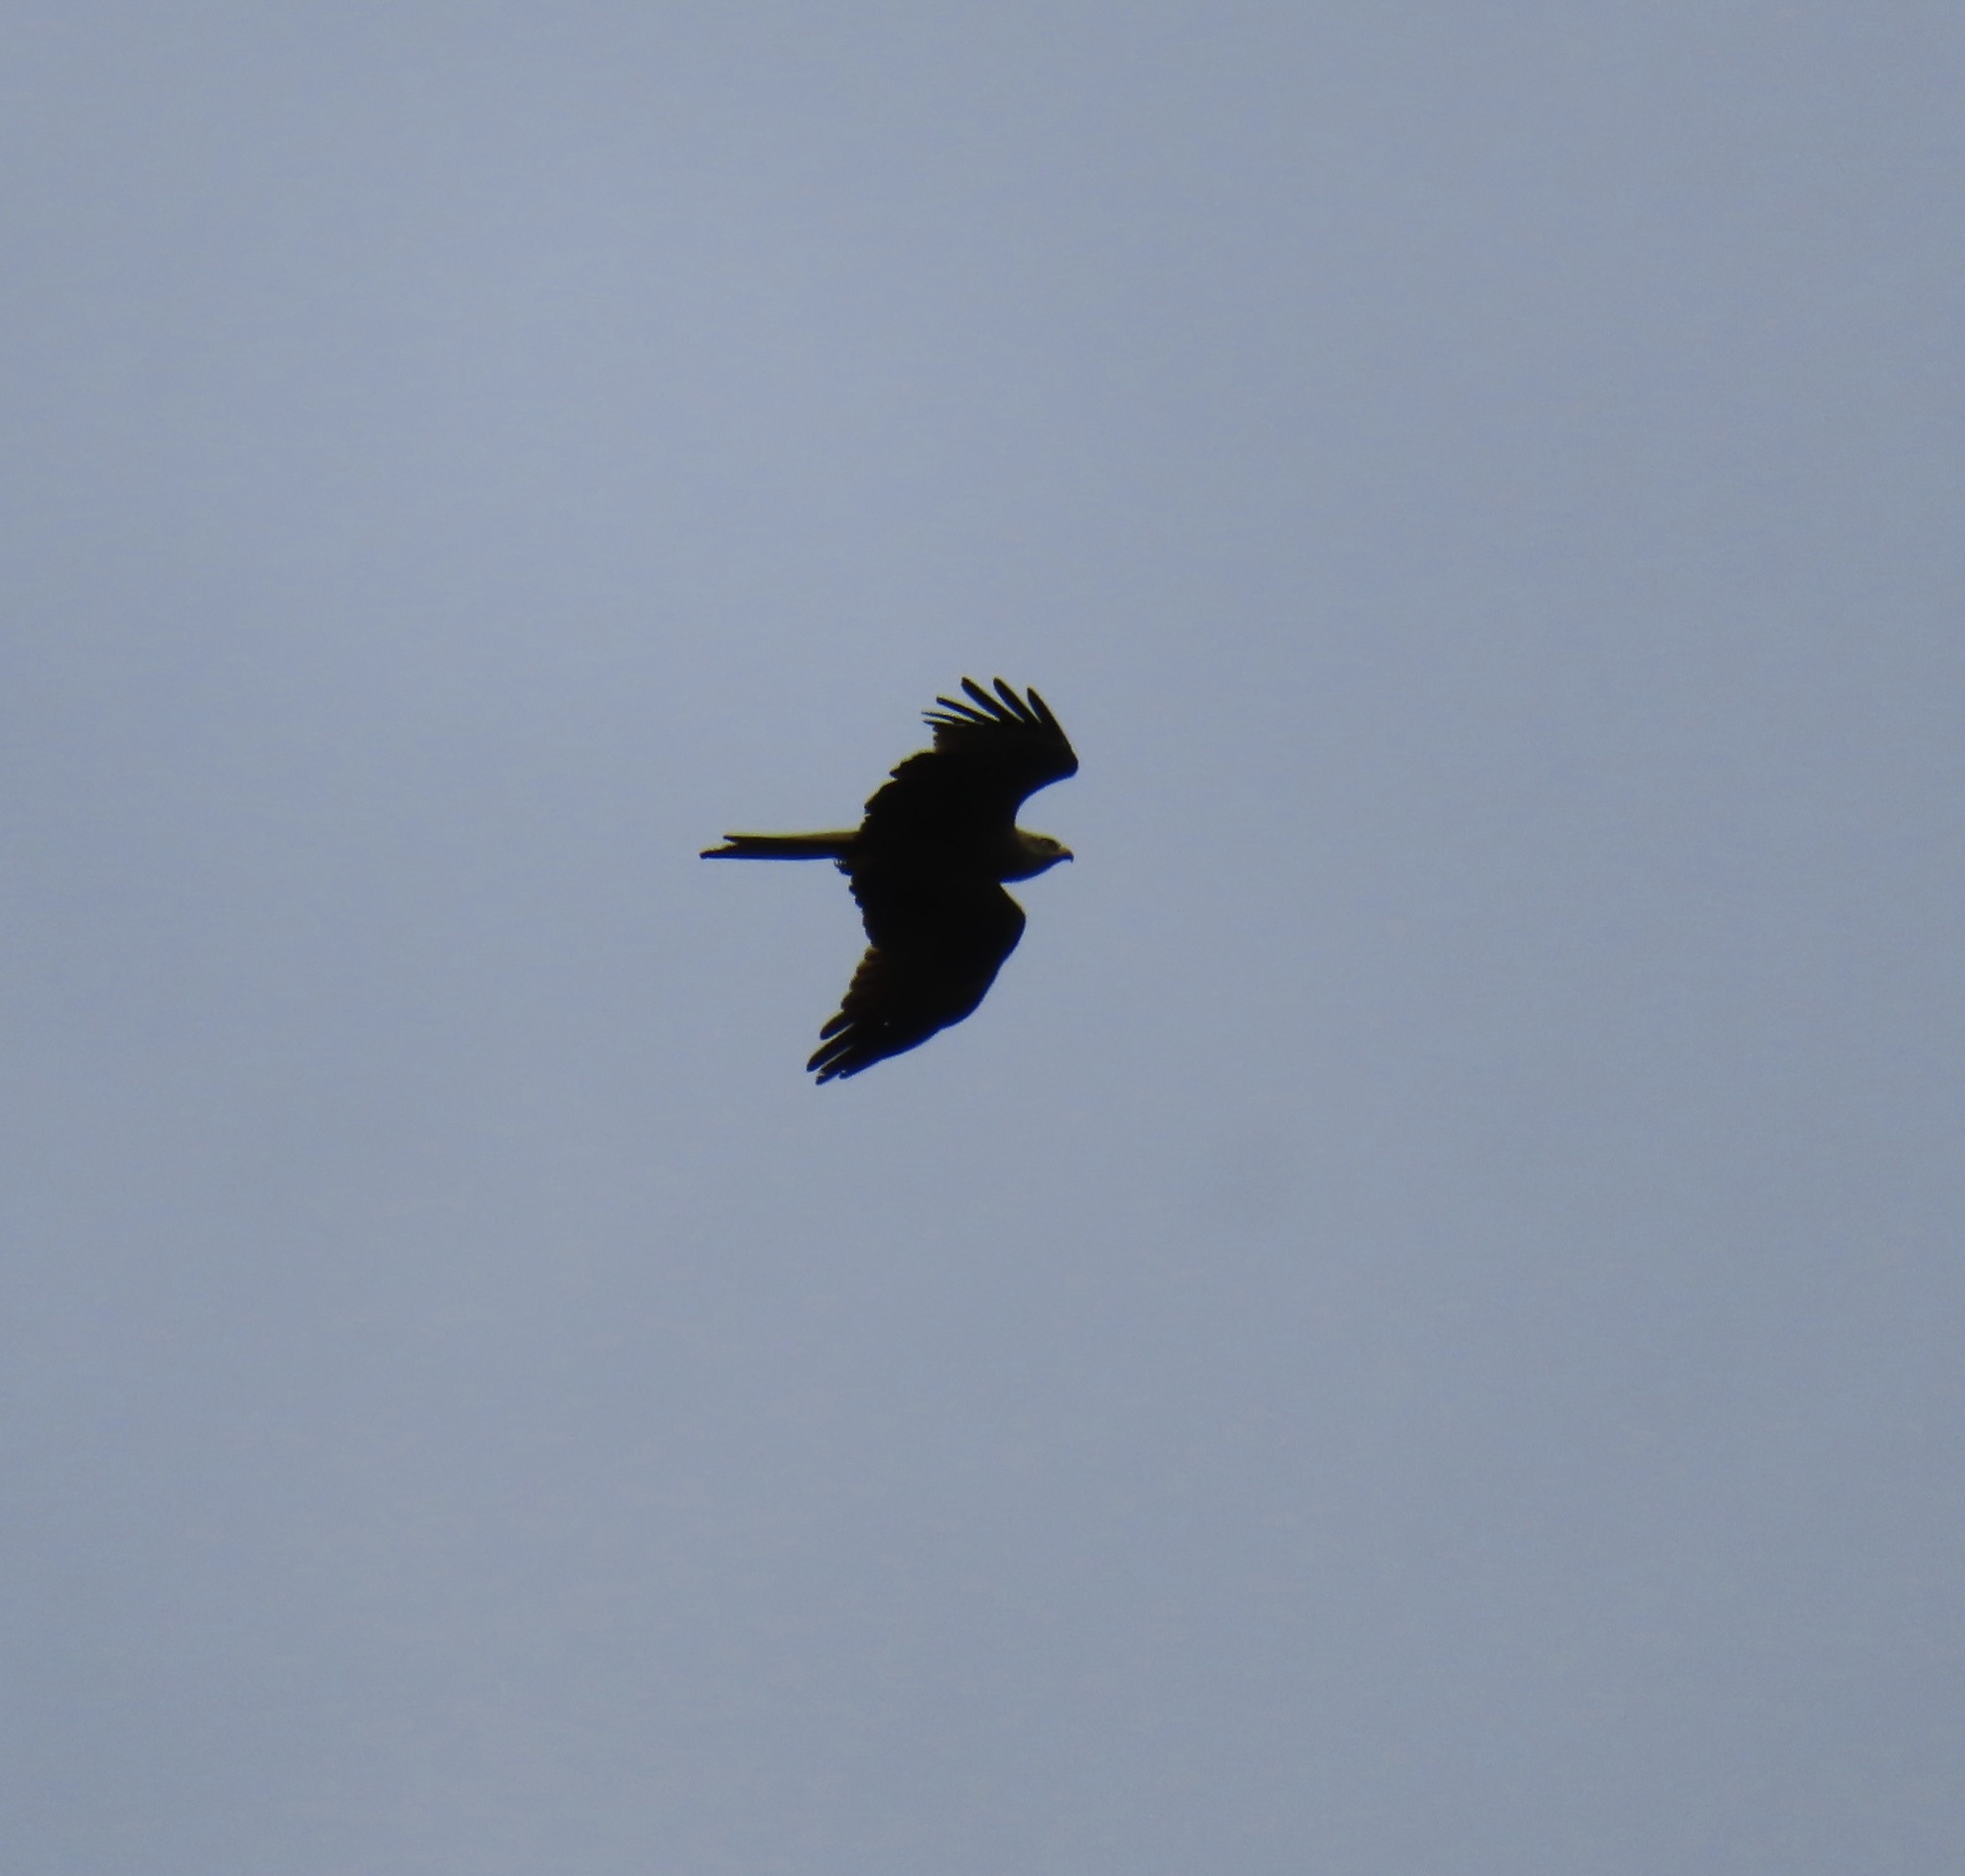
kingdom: Animalia
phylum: Chordata
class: Aves
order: Accipitriformes
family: Accipitridae
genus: Milvus
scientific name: Milvus migrans
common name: Black kite
